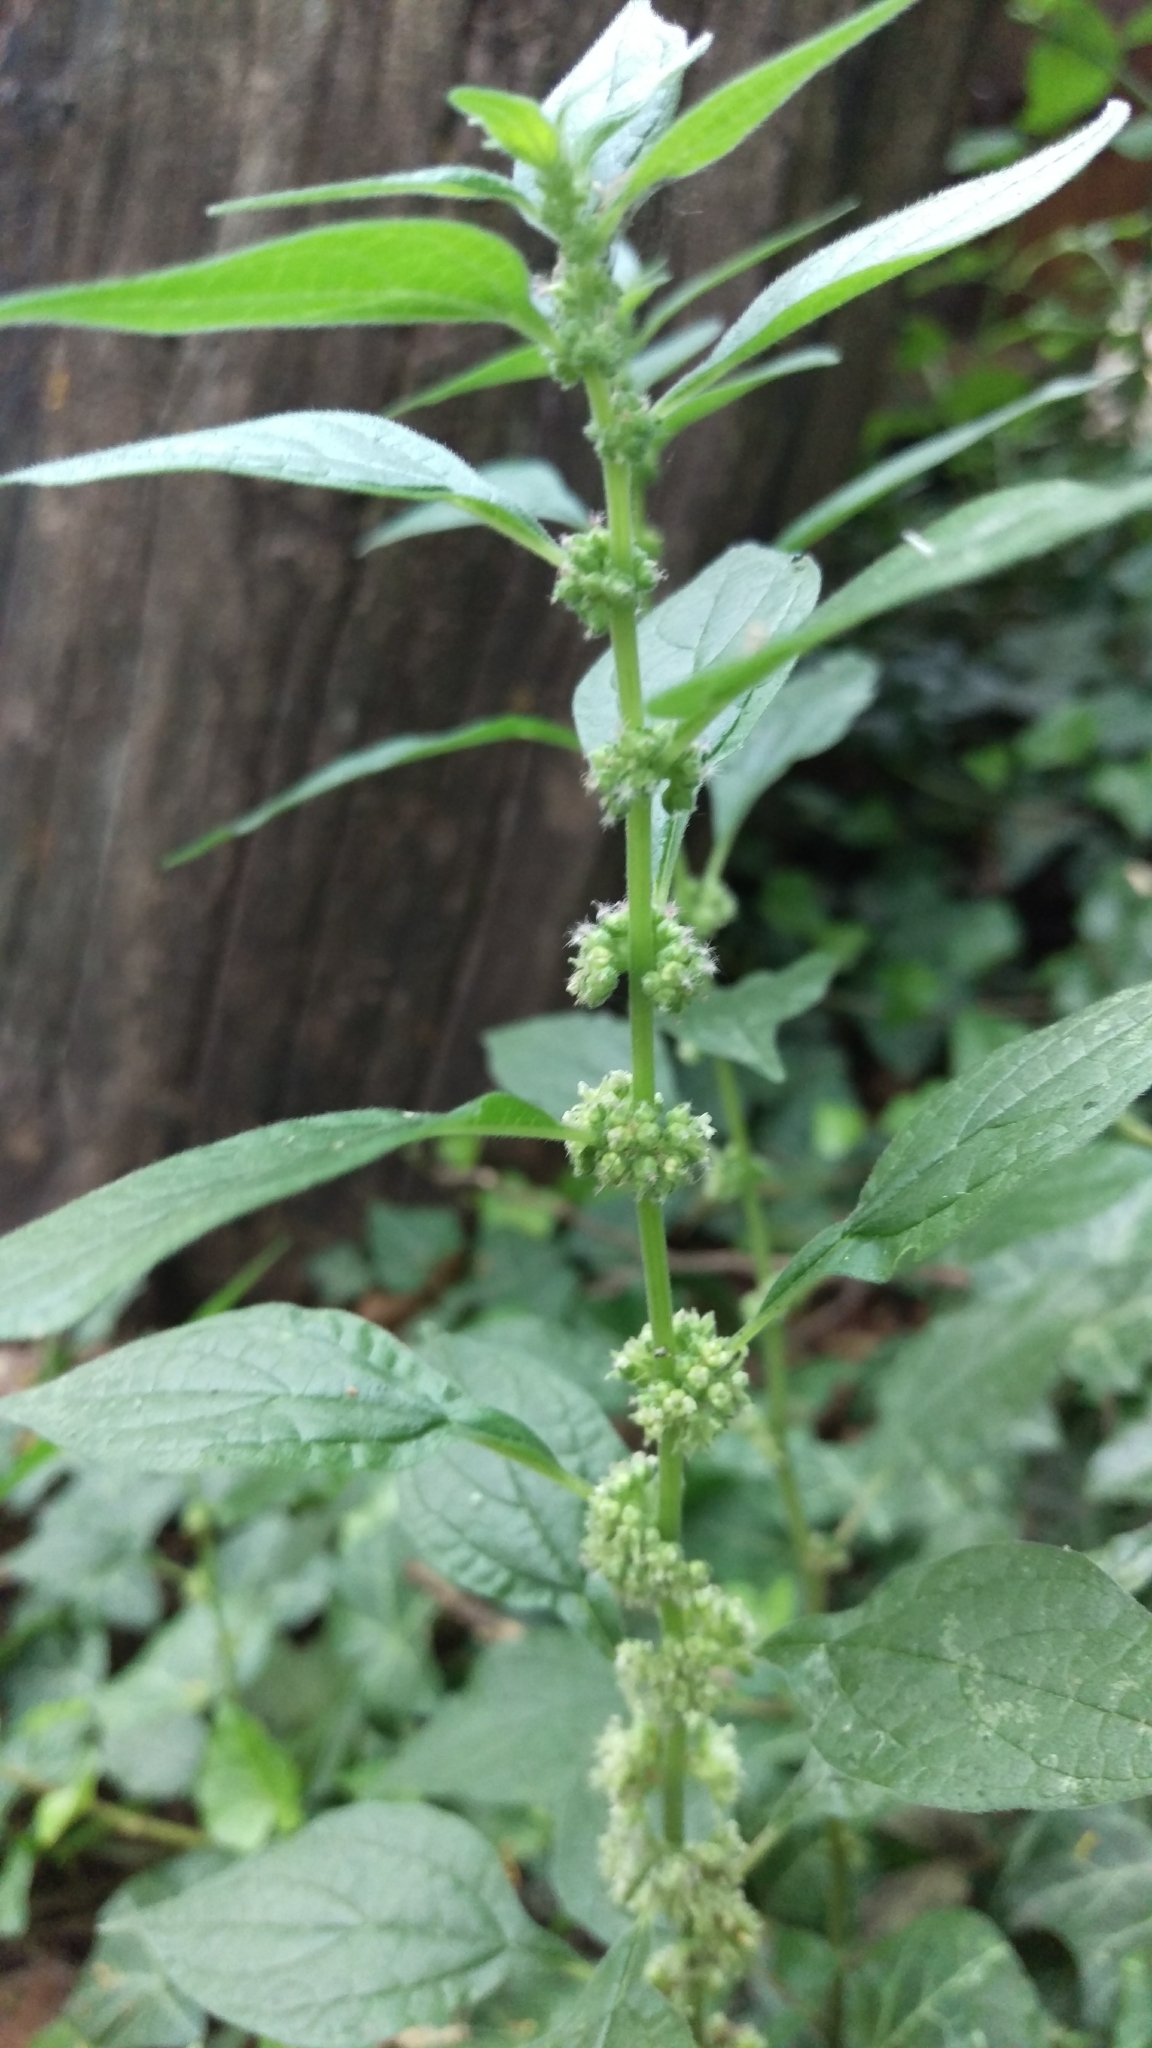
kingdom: Plantae
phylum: Tracheophyta
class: Magnoliopsida
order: Rosales
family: Urticaceae
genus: Parietaria
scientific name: Parietaria officinalis
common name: Eastern pellitory-of-the-wall
